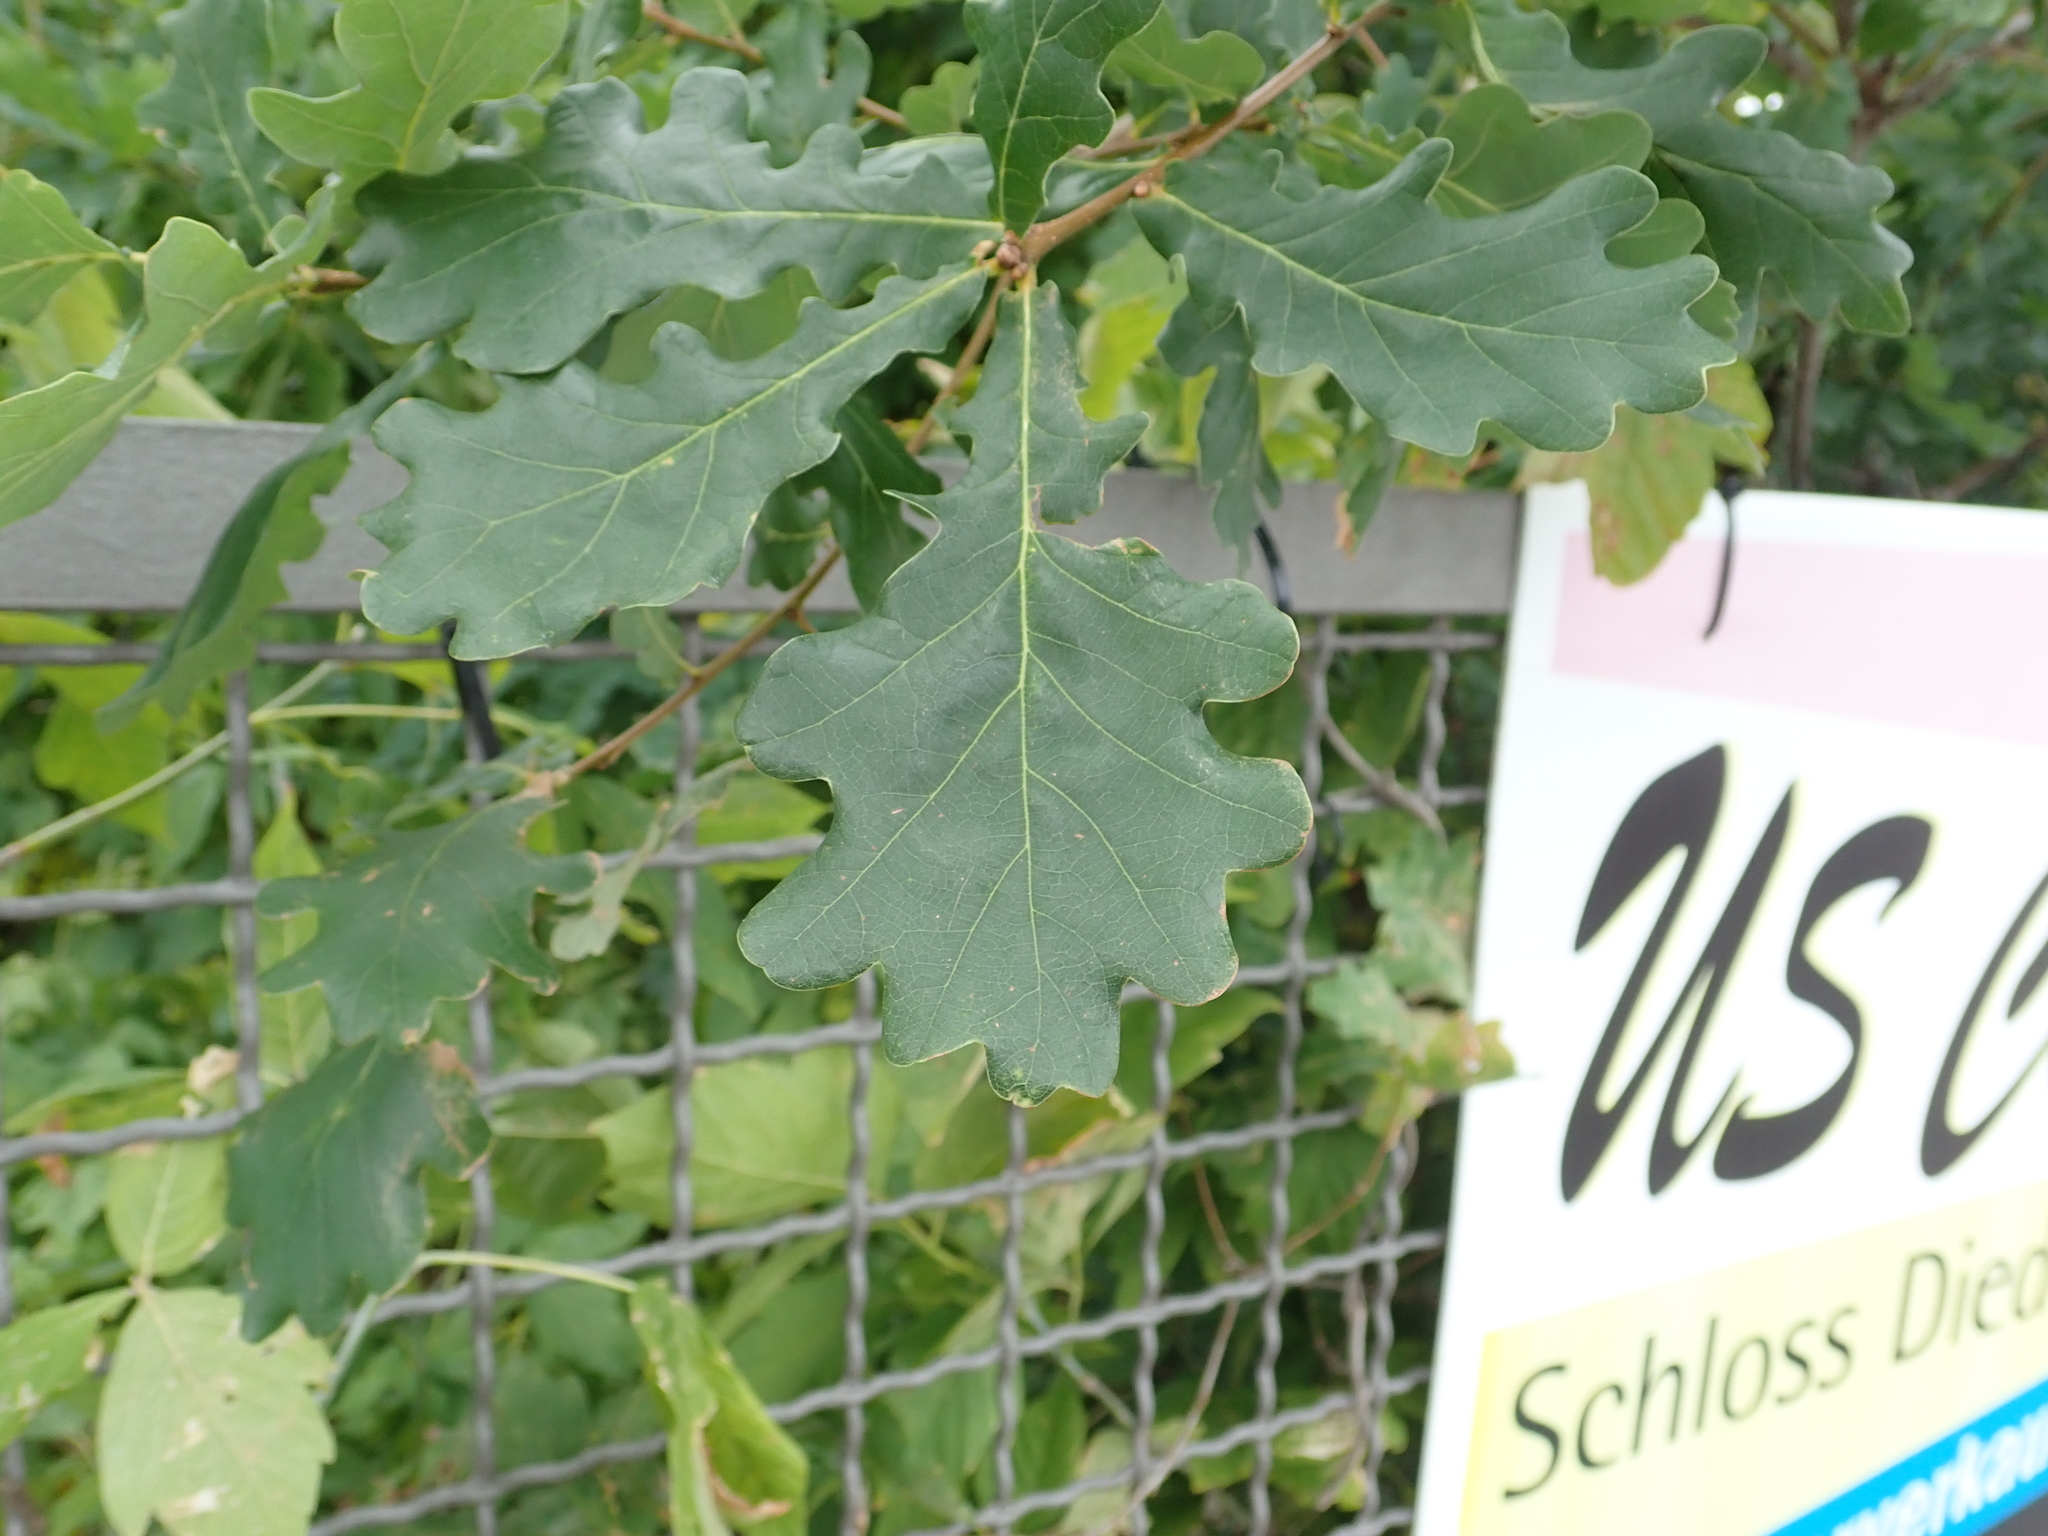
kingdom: Plantae
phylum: Tracheophyta
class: Magnoliopsida
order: Fagales
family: Fagaceae
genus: Quercus
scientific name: Quercus robur
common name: Pedunculate oak
